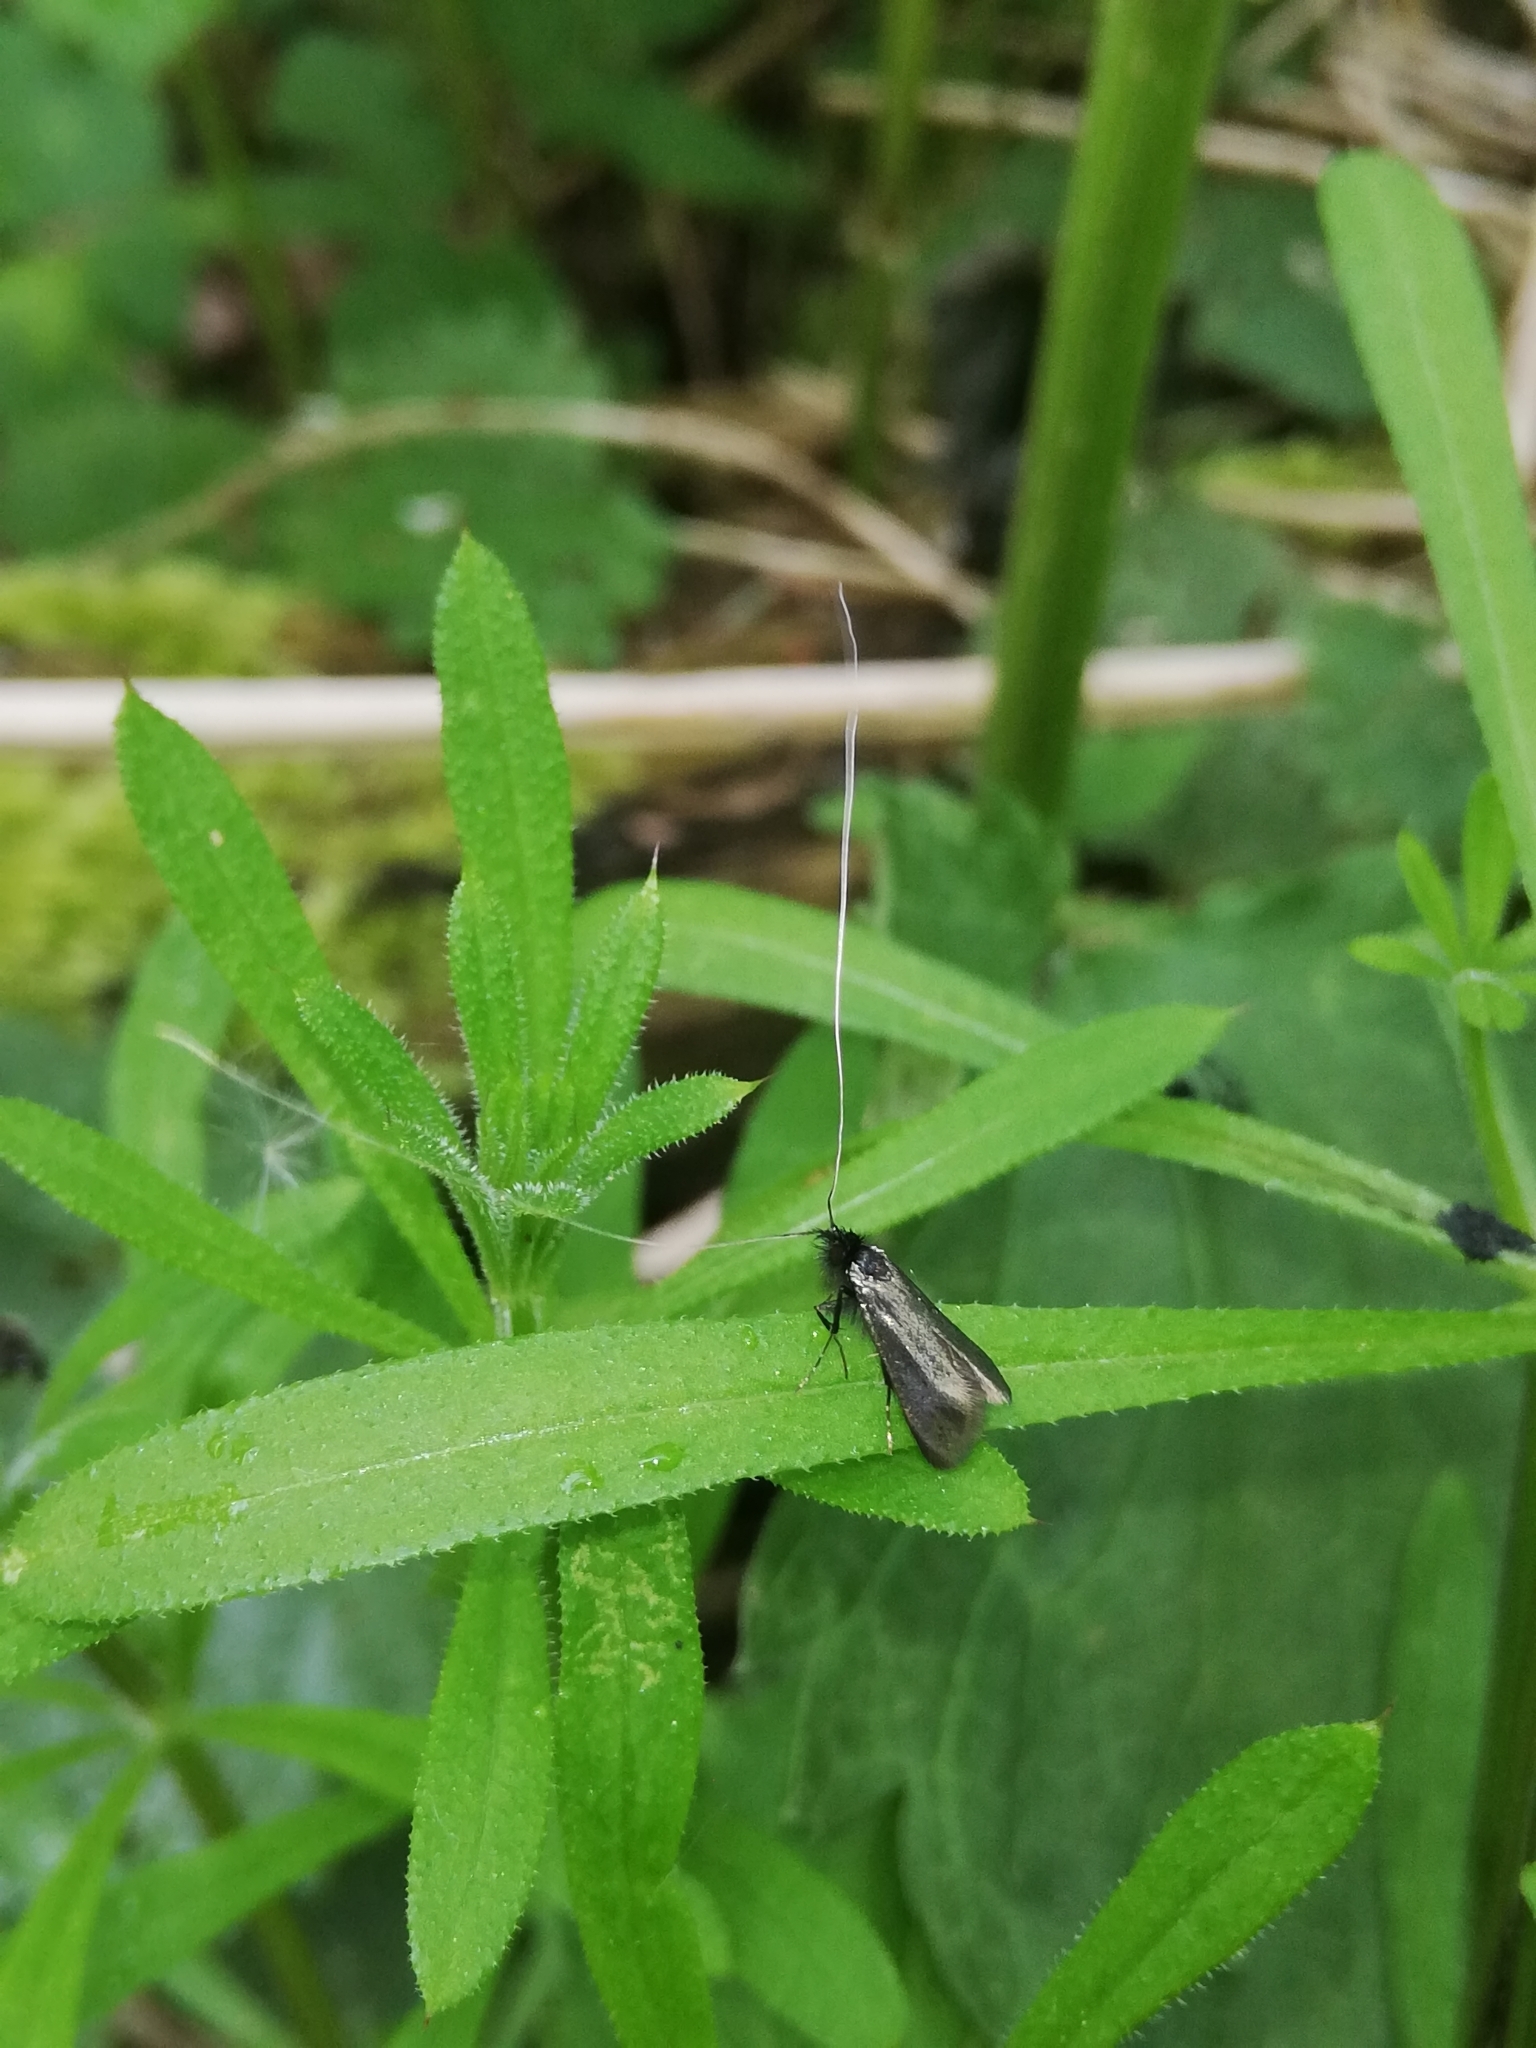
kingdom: Animalia
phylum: Arthropoda
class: Insecta
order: Lepidoptera
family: Adelidae
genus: Adela
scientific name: Adela viridella
